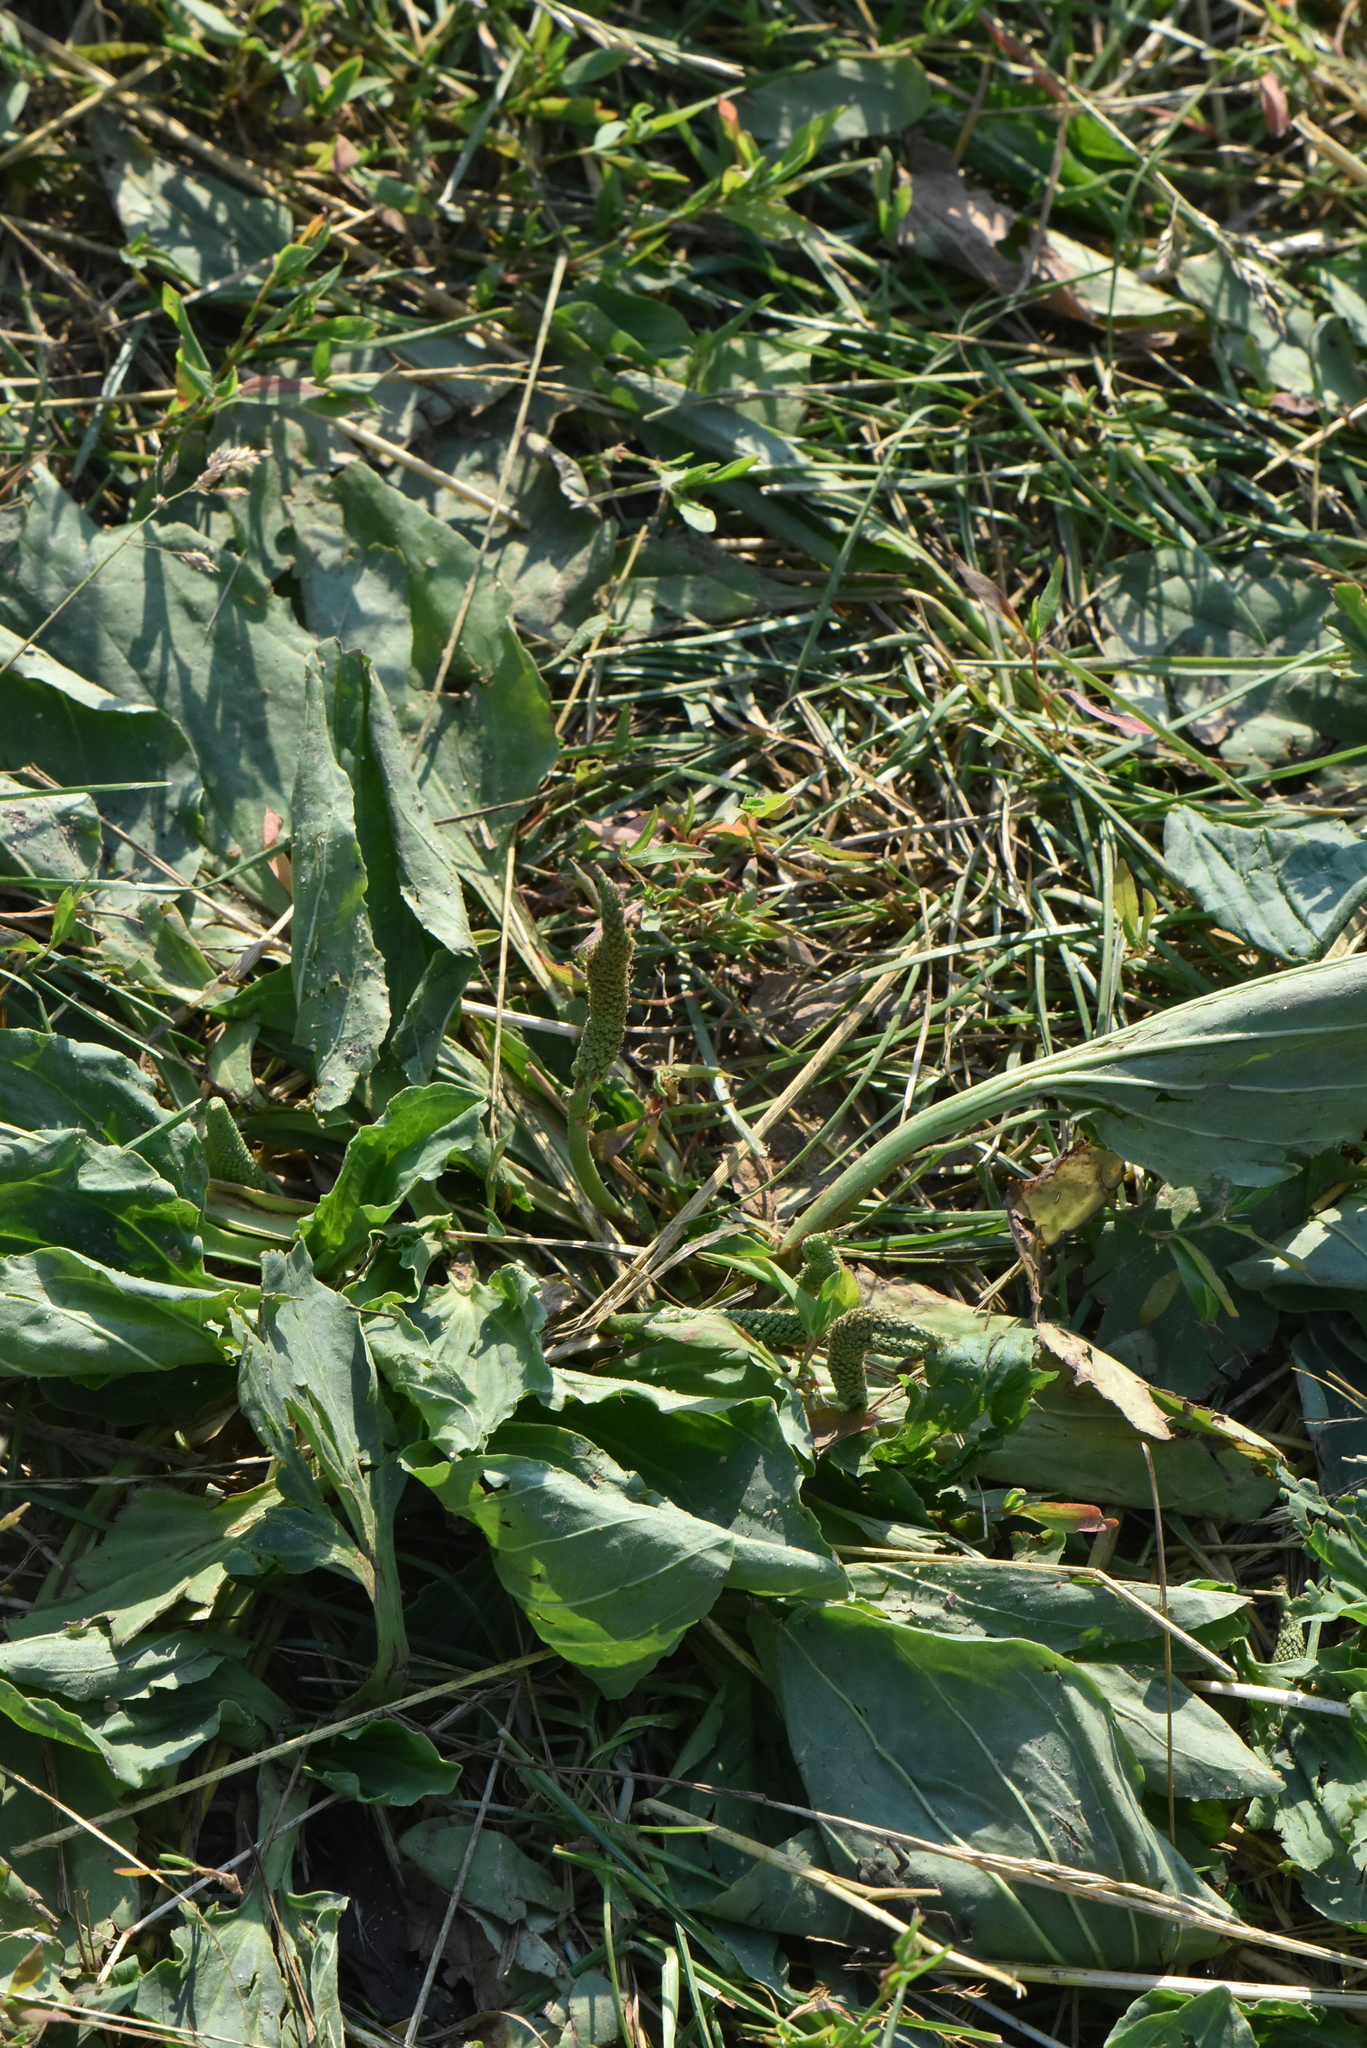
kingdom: Plantae
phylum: Tracheophyta
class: Magnoliopsida
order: Lamiales
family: Plantaginaceae
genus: Plantago
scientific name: Plantago major
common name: Common plantain
